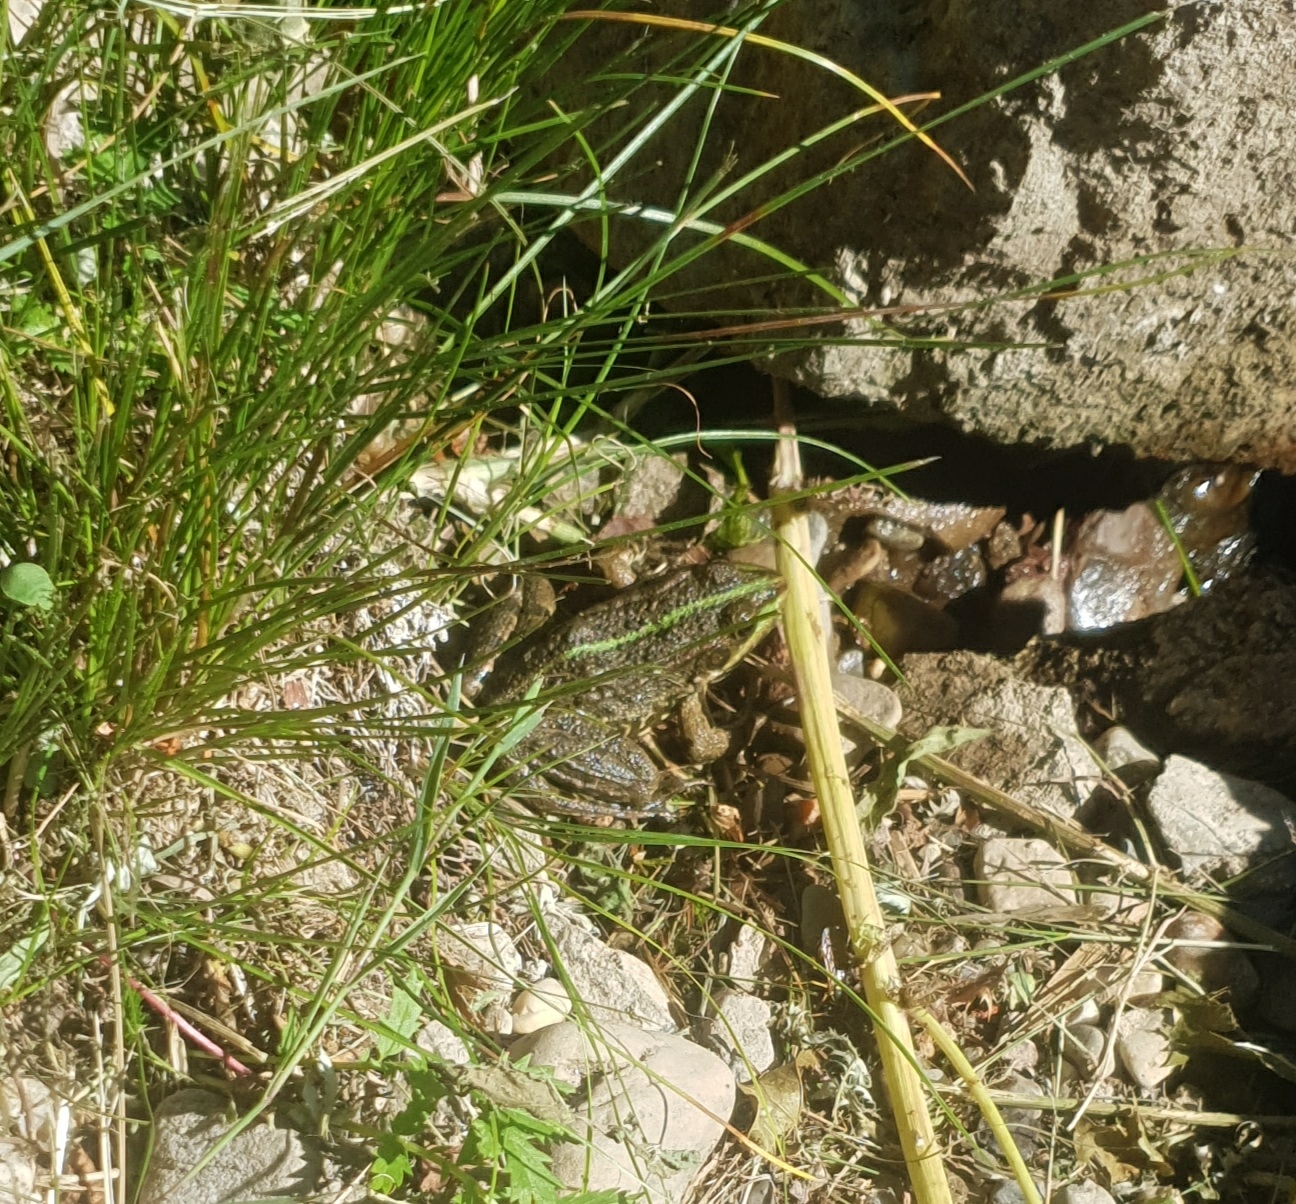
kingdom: Animalia
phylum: Chordata
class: Amphibia
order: Anura
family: Ranidae
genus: Pelophylax
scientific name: Pelophylax ridibundus
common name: Marsh frog
